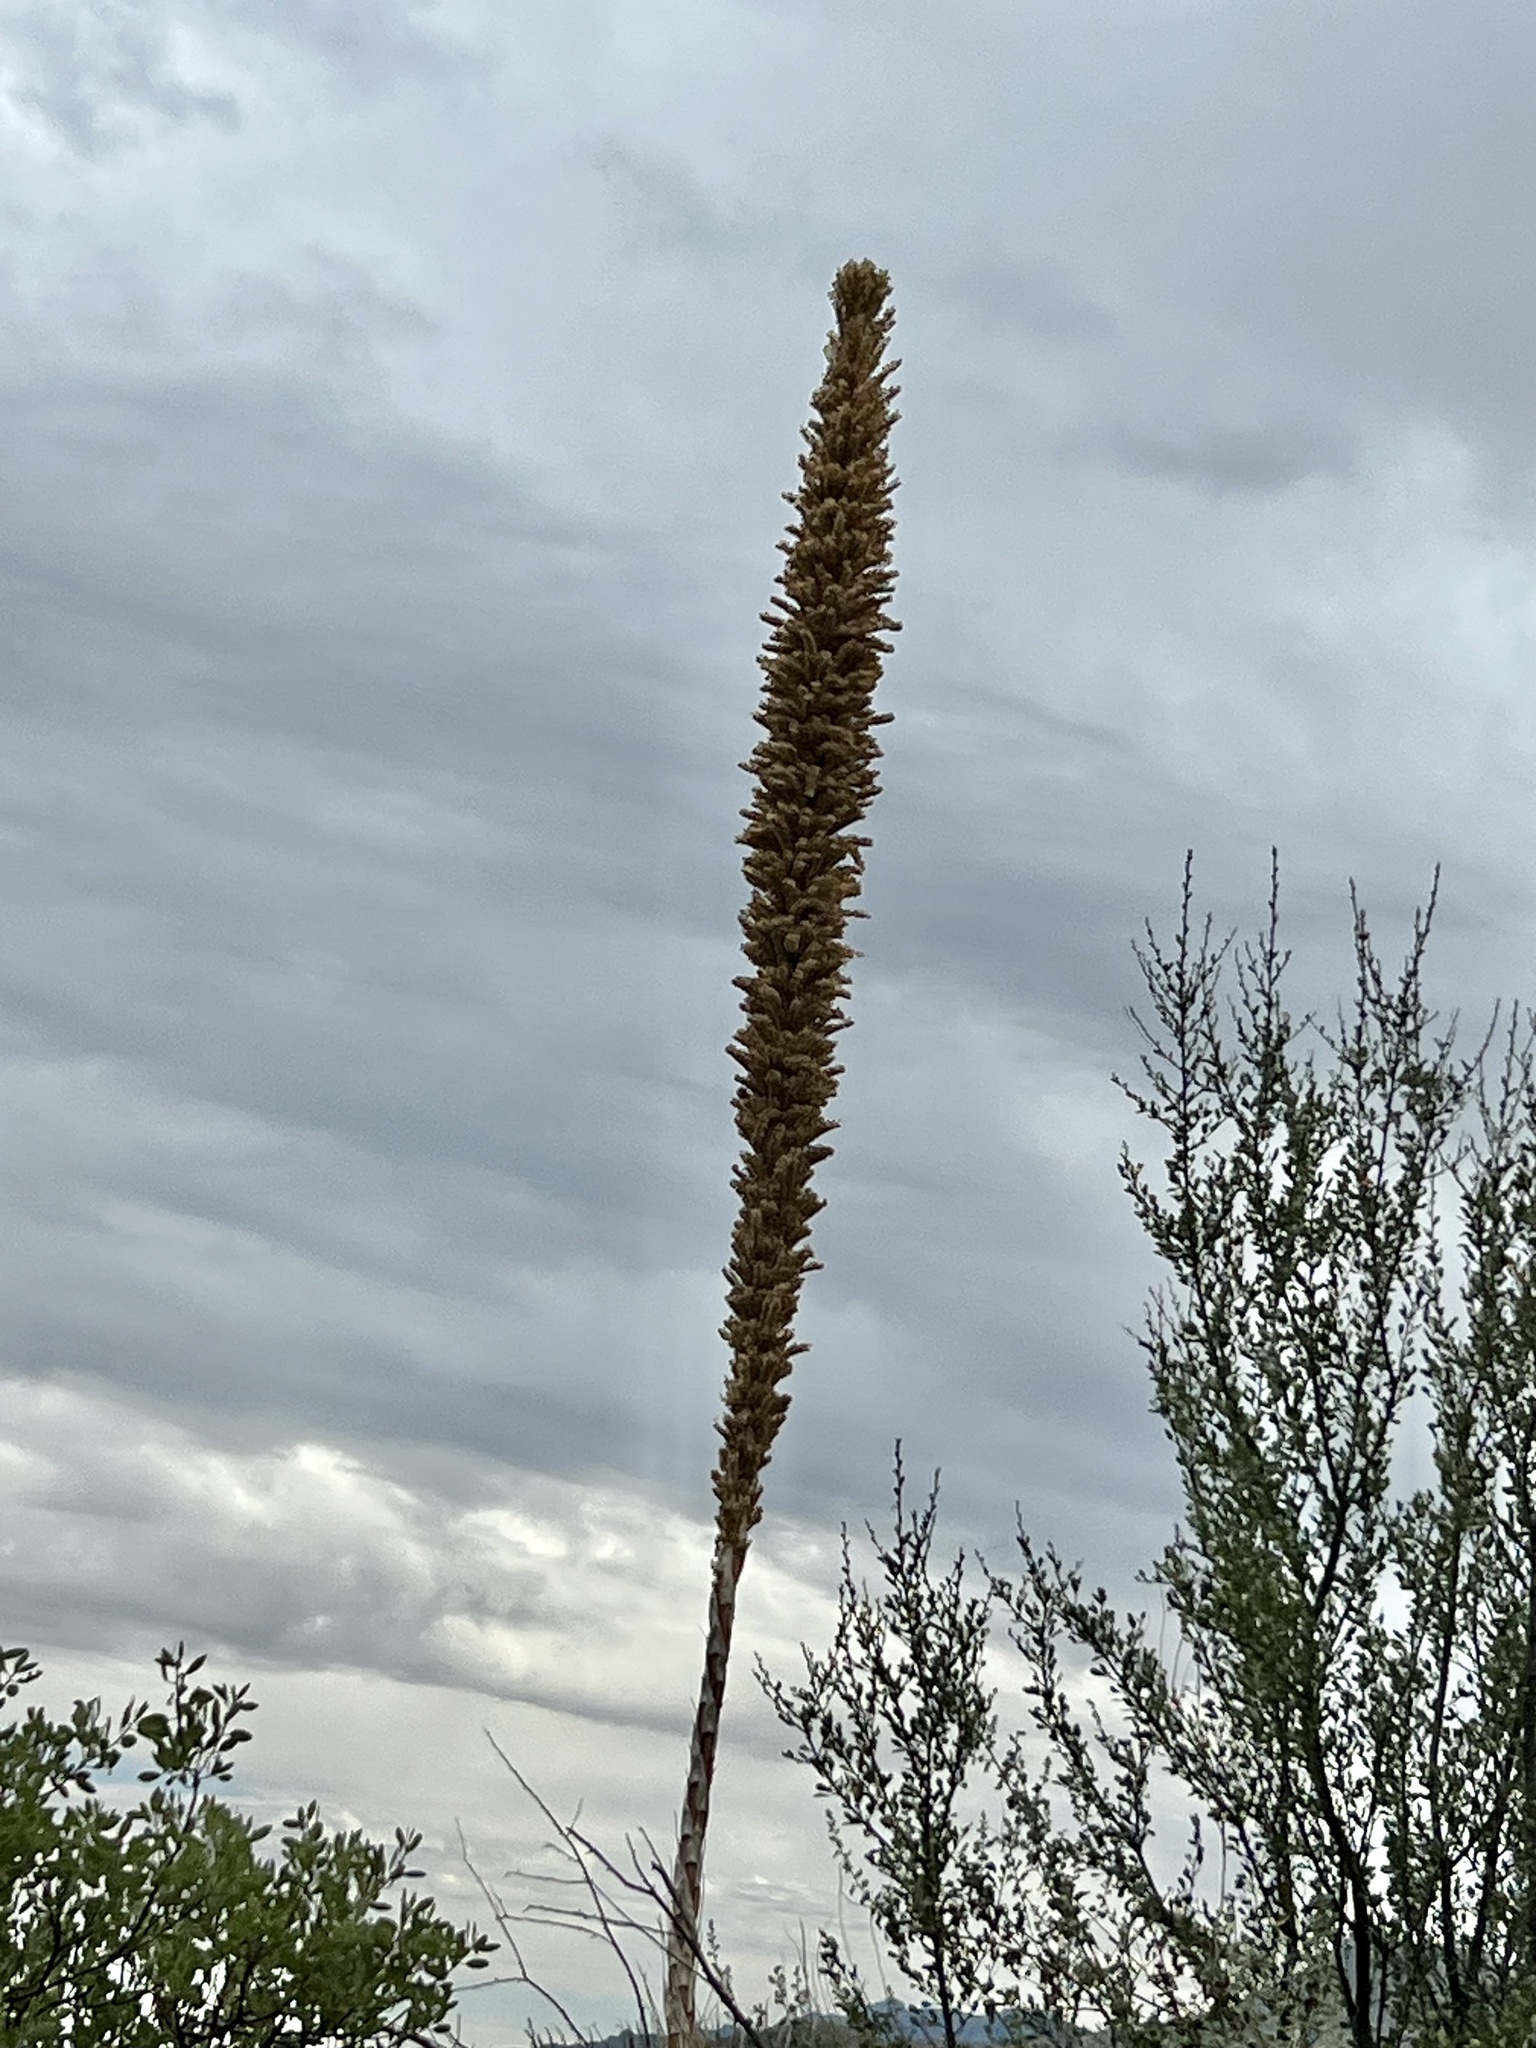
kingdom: Plantae
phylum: Tracheophyta
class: Liliopsida
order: Asparagales
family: Asparagaceae
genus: Dasylirion
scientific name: Dasylirion wheeleri
